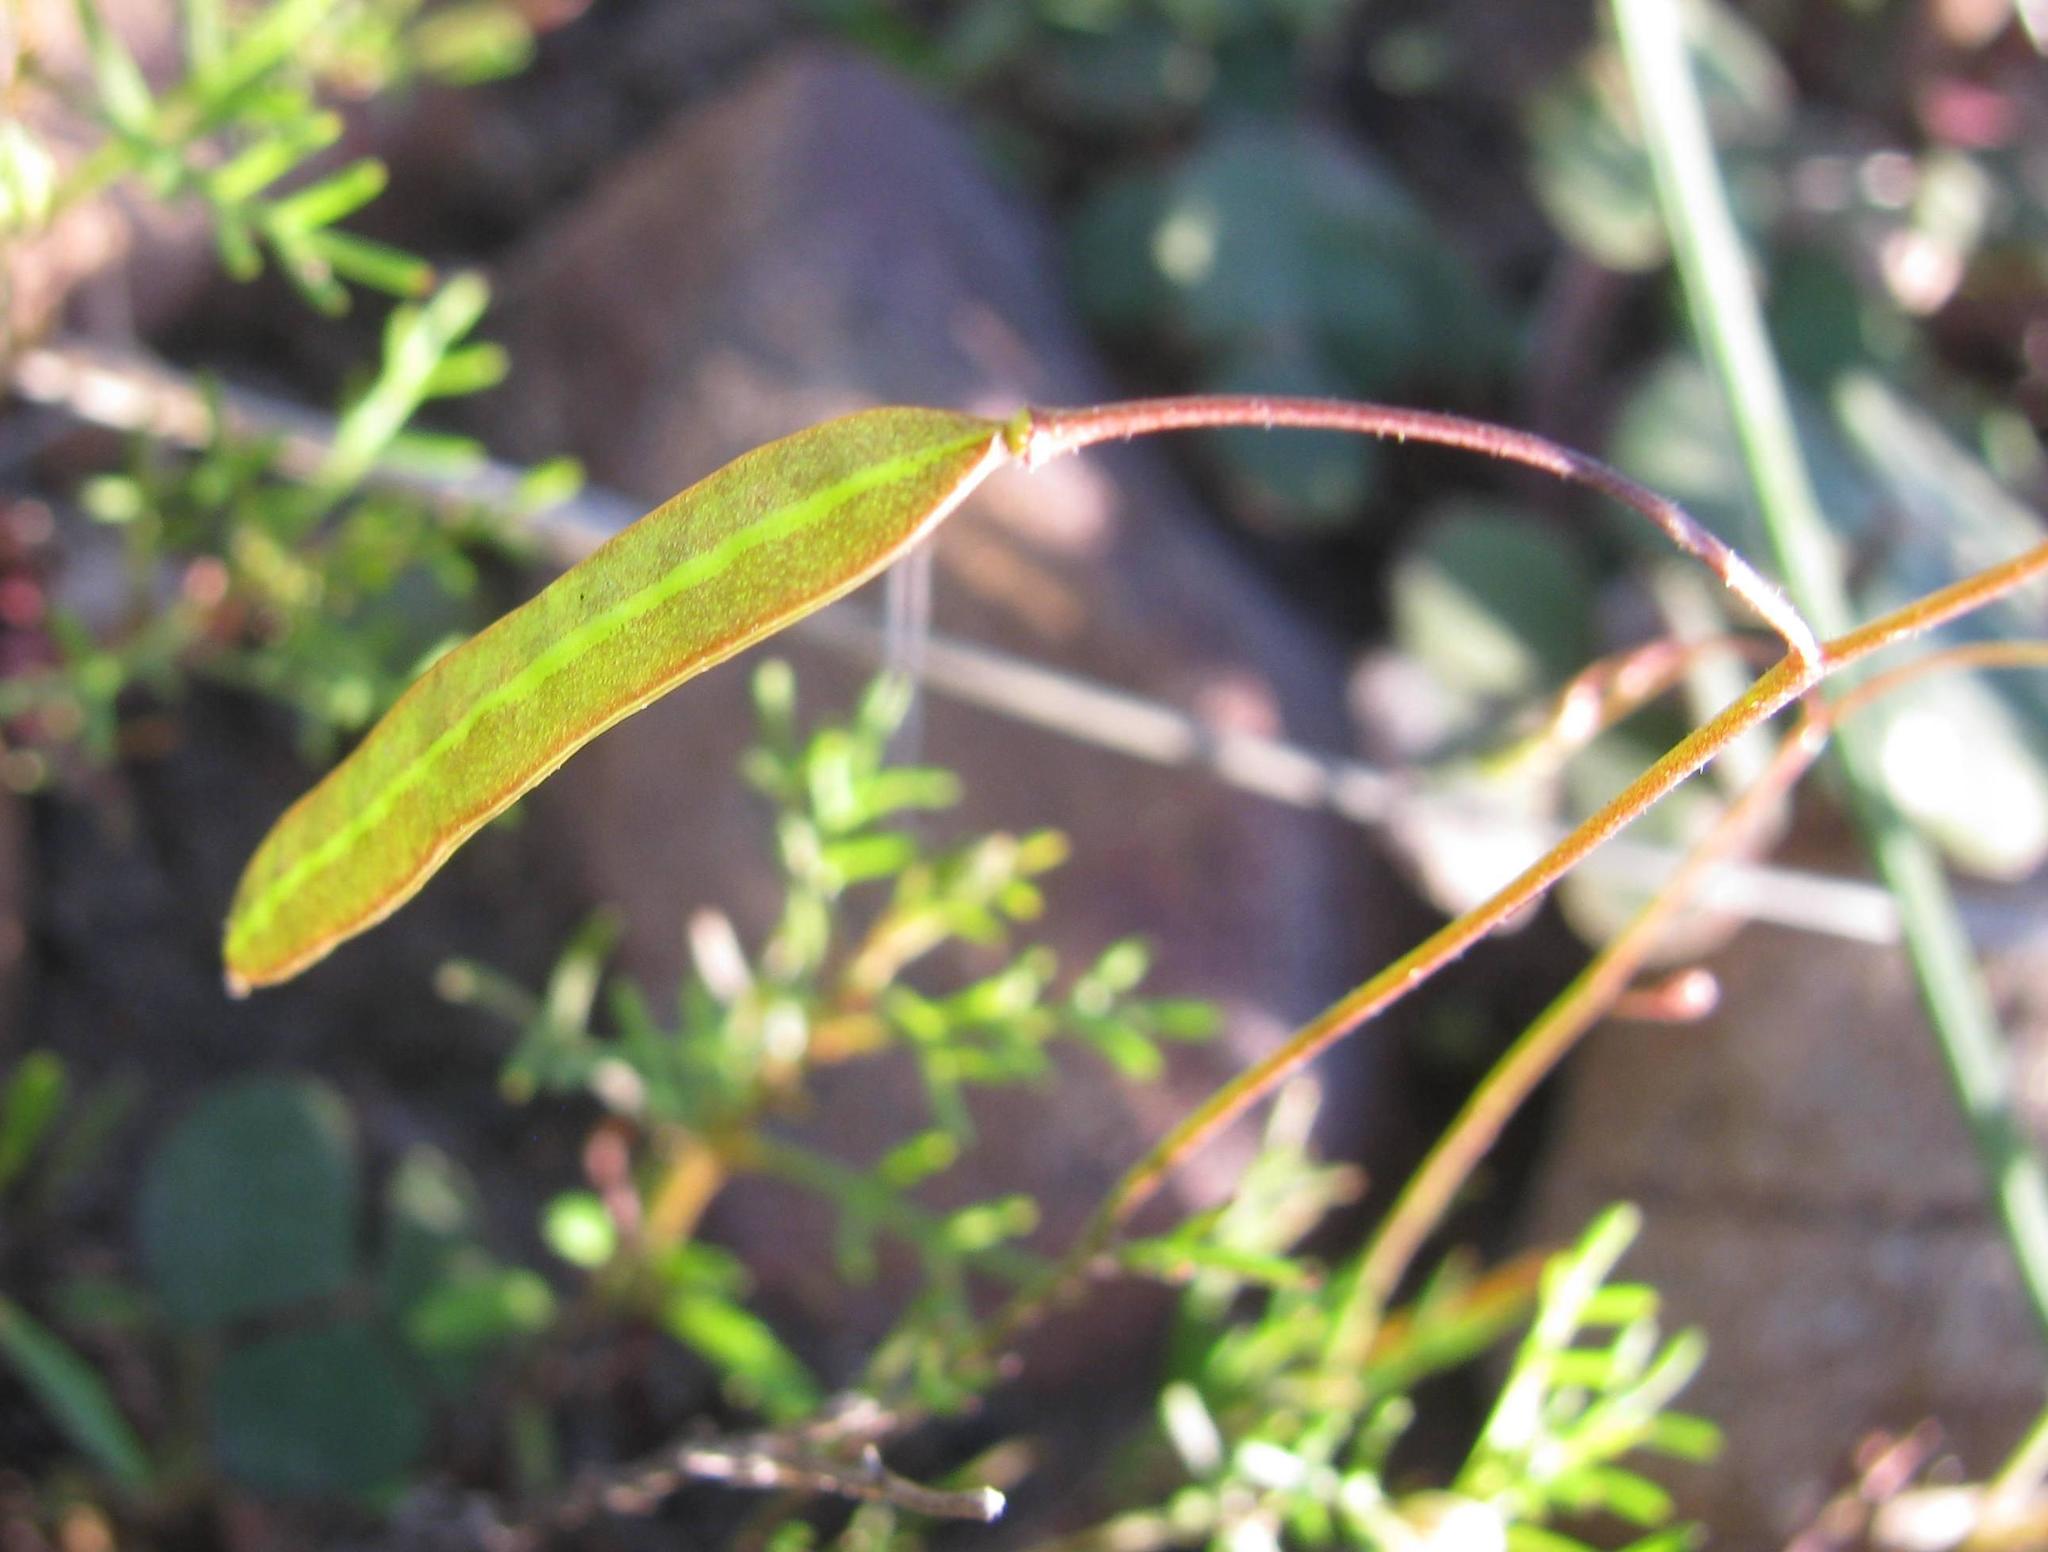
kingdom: Plantae
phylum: Tracheophyta
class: Magnoliopsida
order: Brassicales
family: Brassicaceae
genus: Heliophila
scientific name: Heliophila crithmifolia
